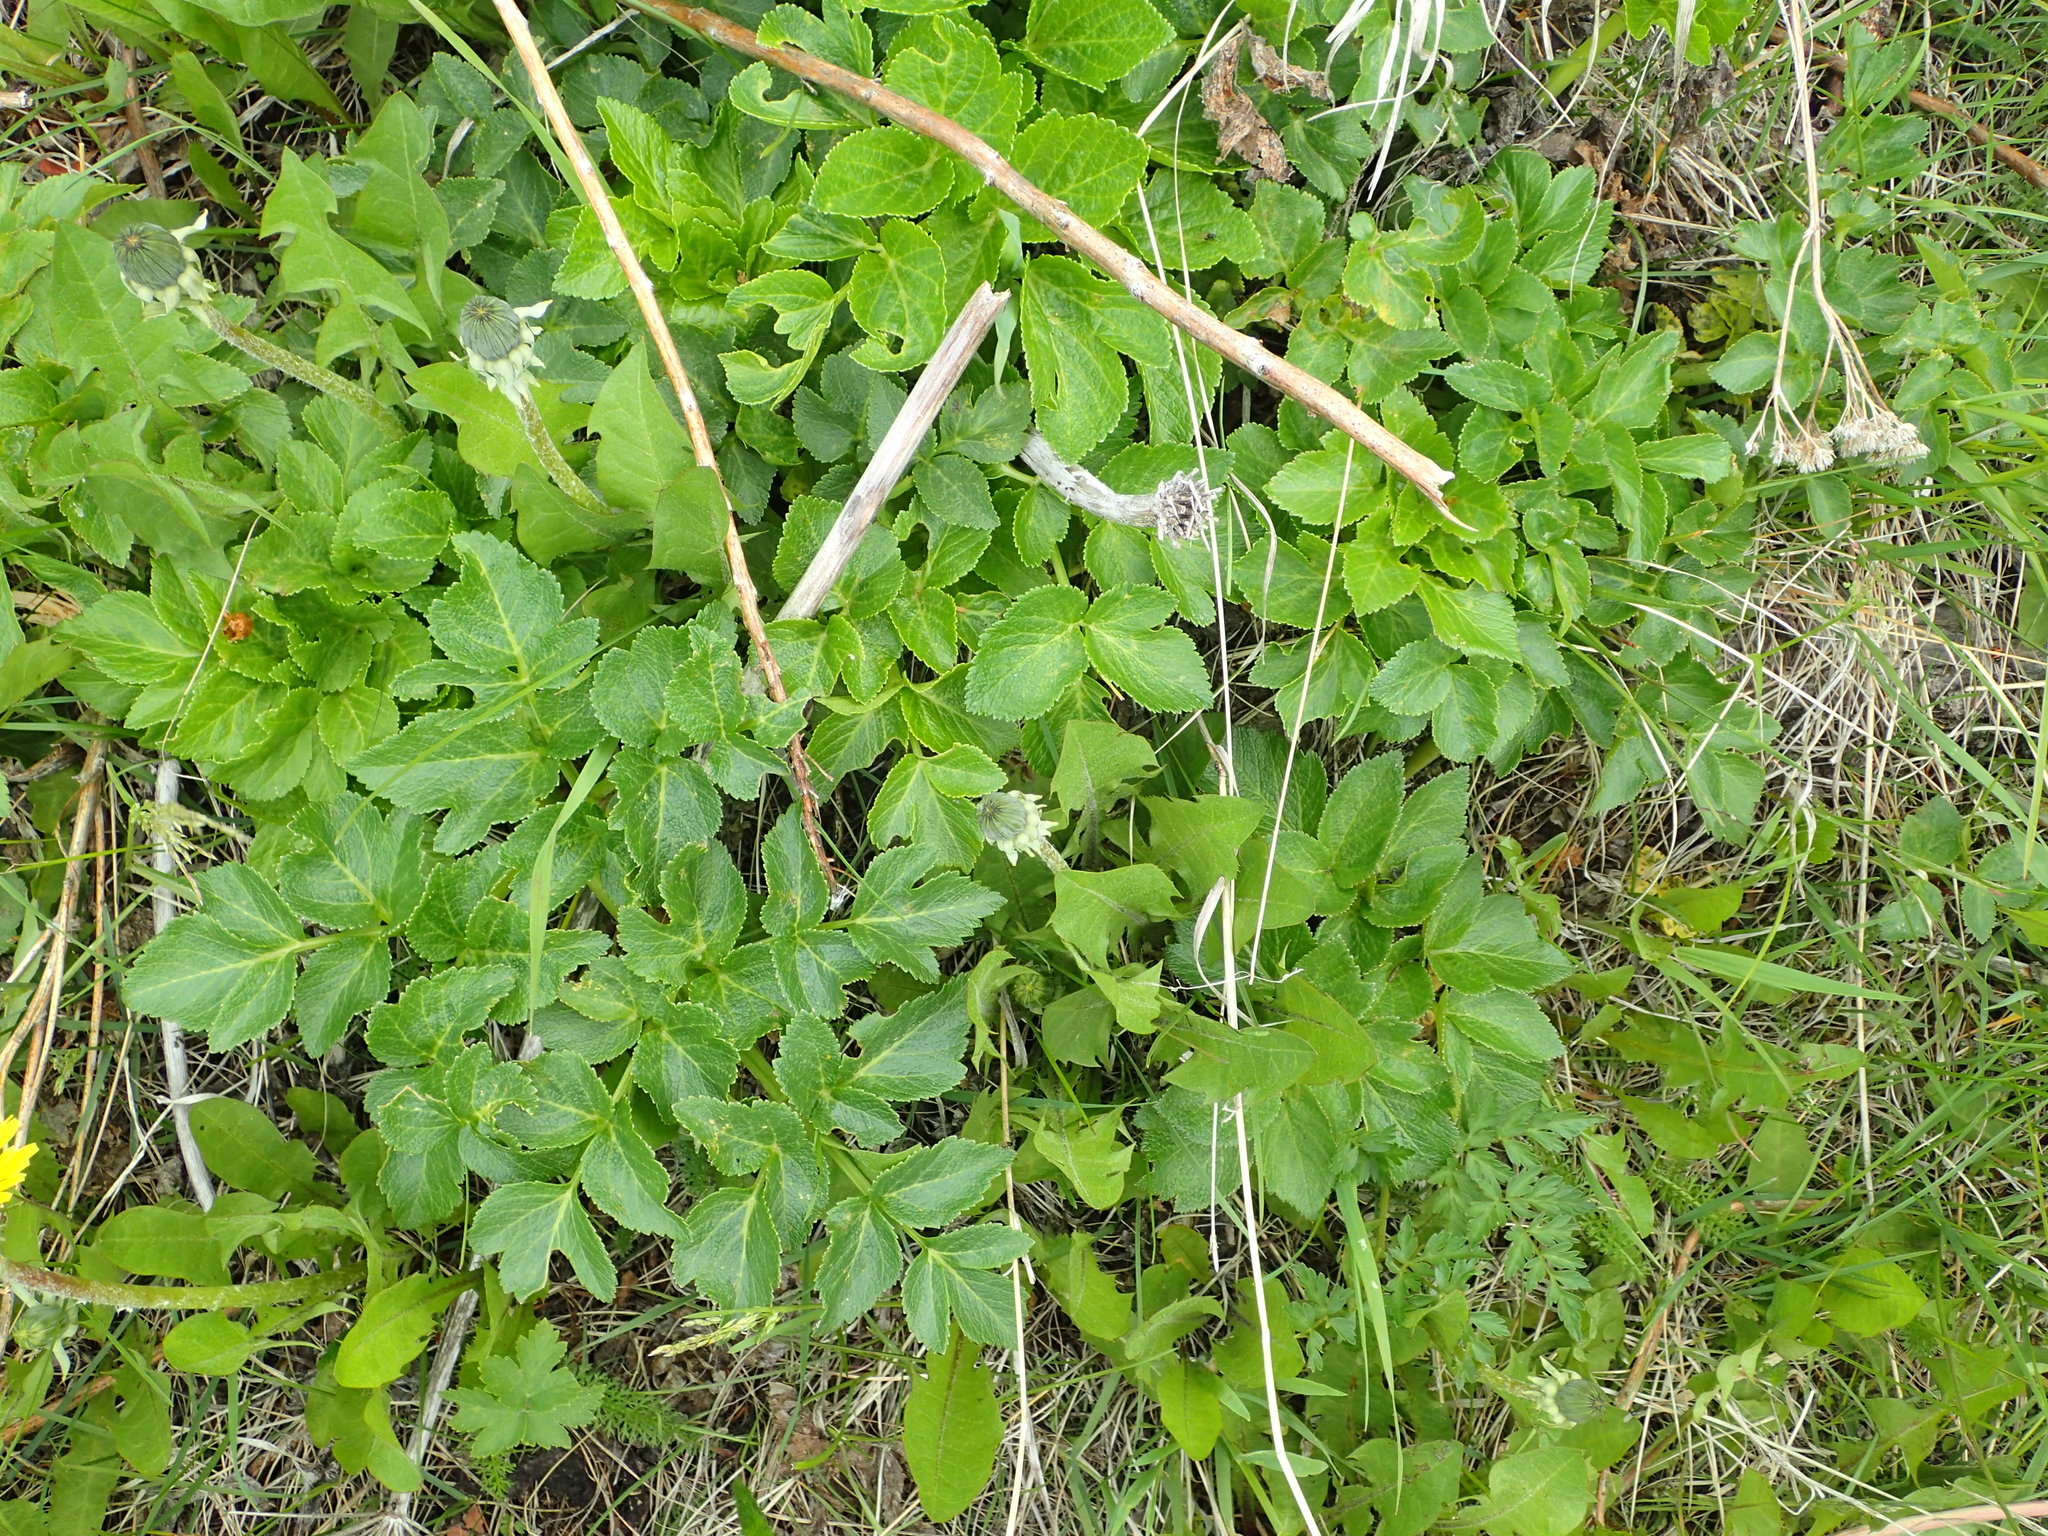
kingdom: Plantae
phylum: Tracheophyta
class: Magnoliopsida
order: Apiales
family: Apiaceae
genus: Angelica
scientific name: Angelica lucida
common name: Seabeach angelica
